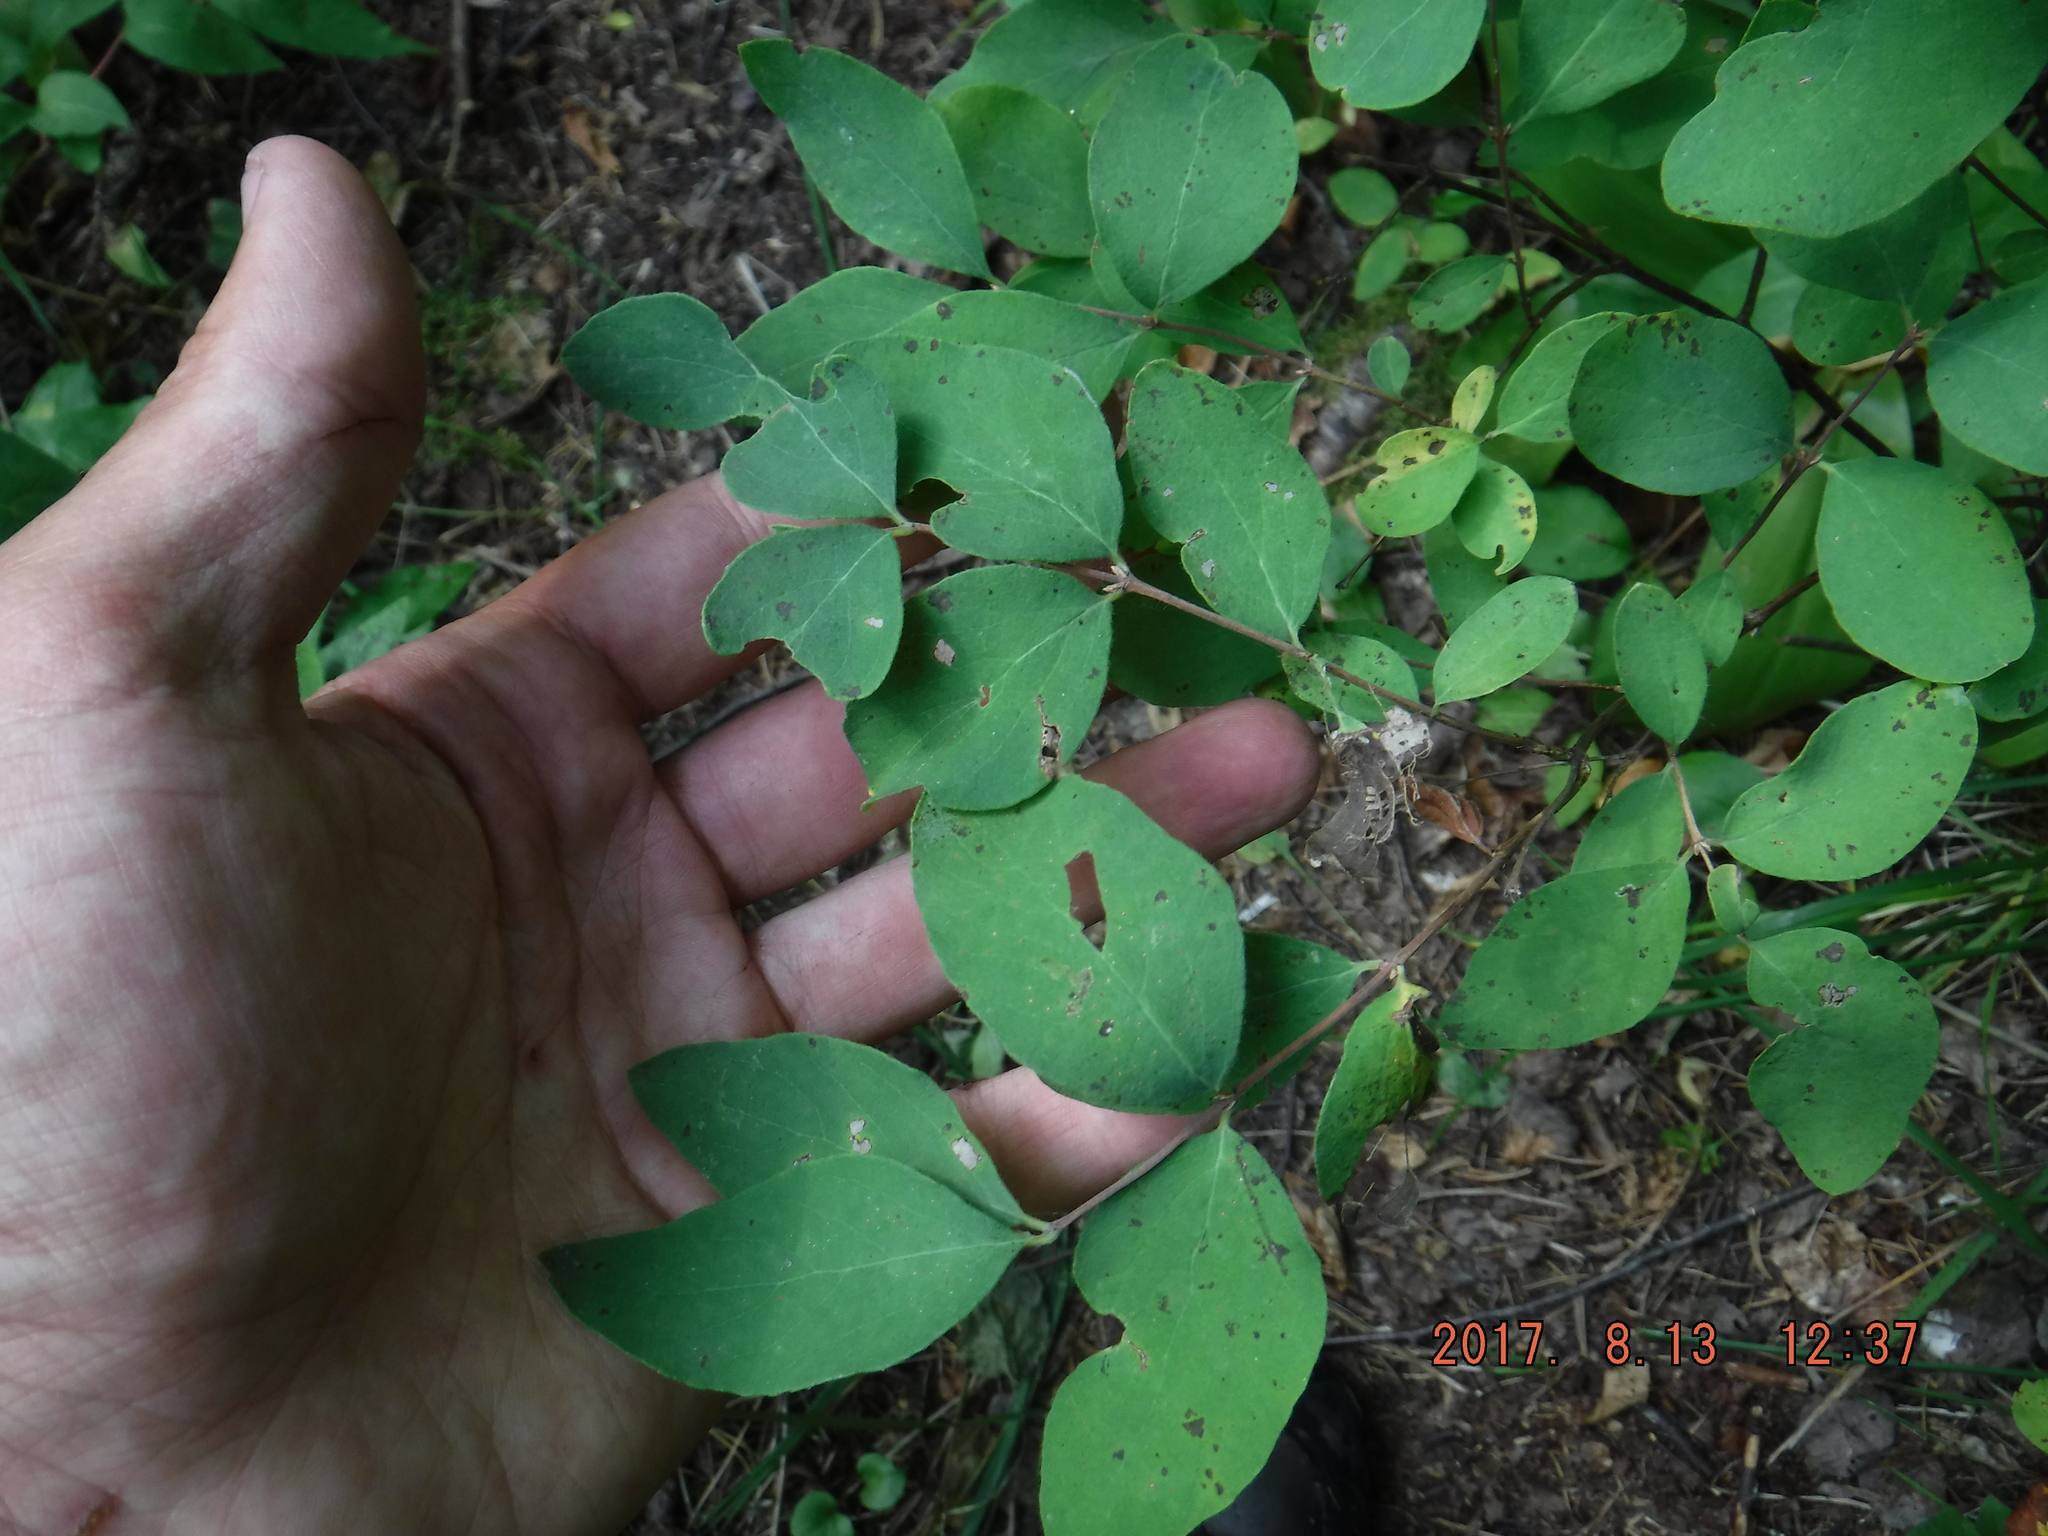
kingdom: Plantae
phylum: Tracheophyta
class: Magnoliopsida
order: Dipsacales
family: Caprifoliaceae
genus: Symphoricarpos
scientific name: Symphoricarpos albus
